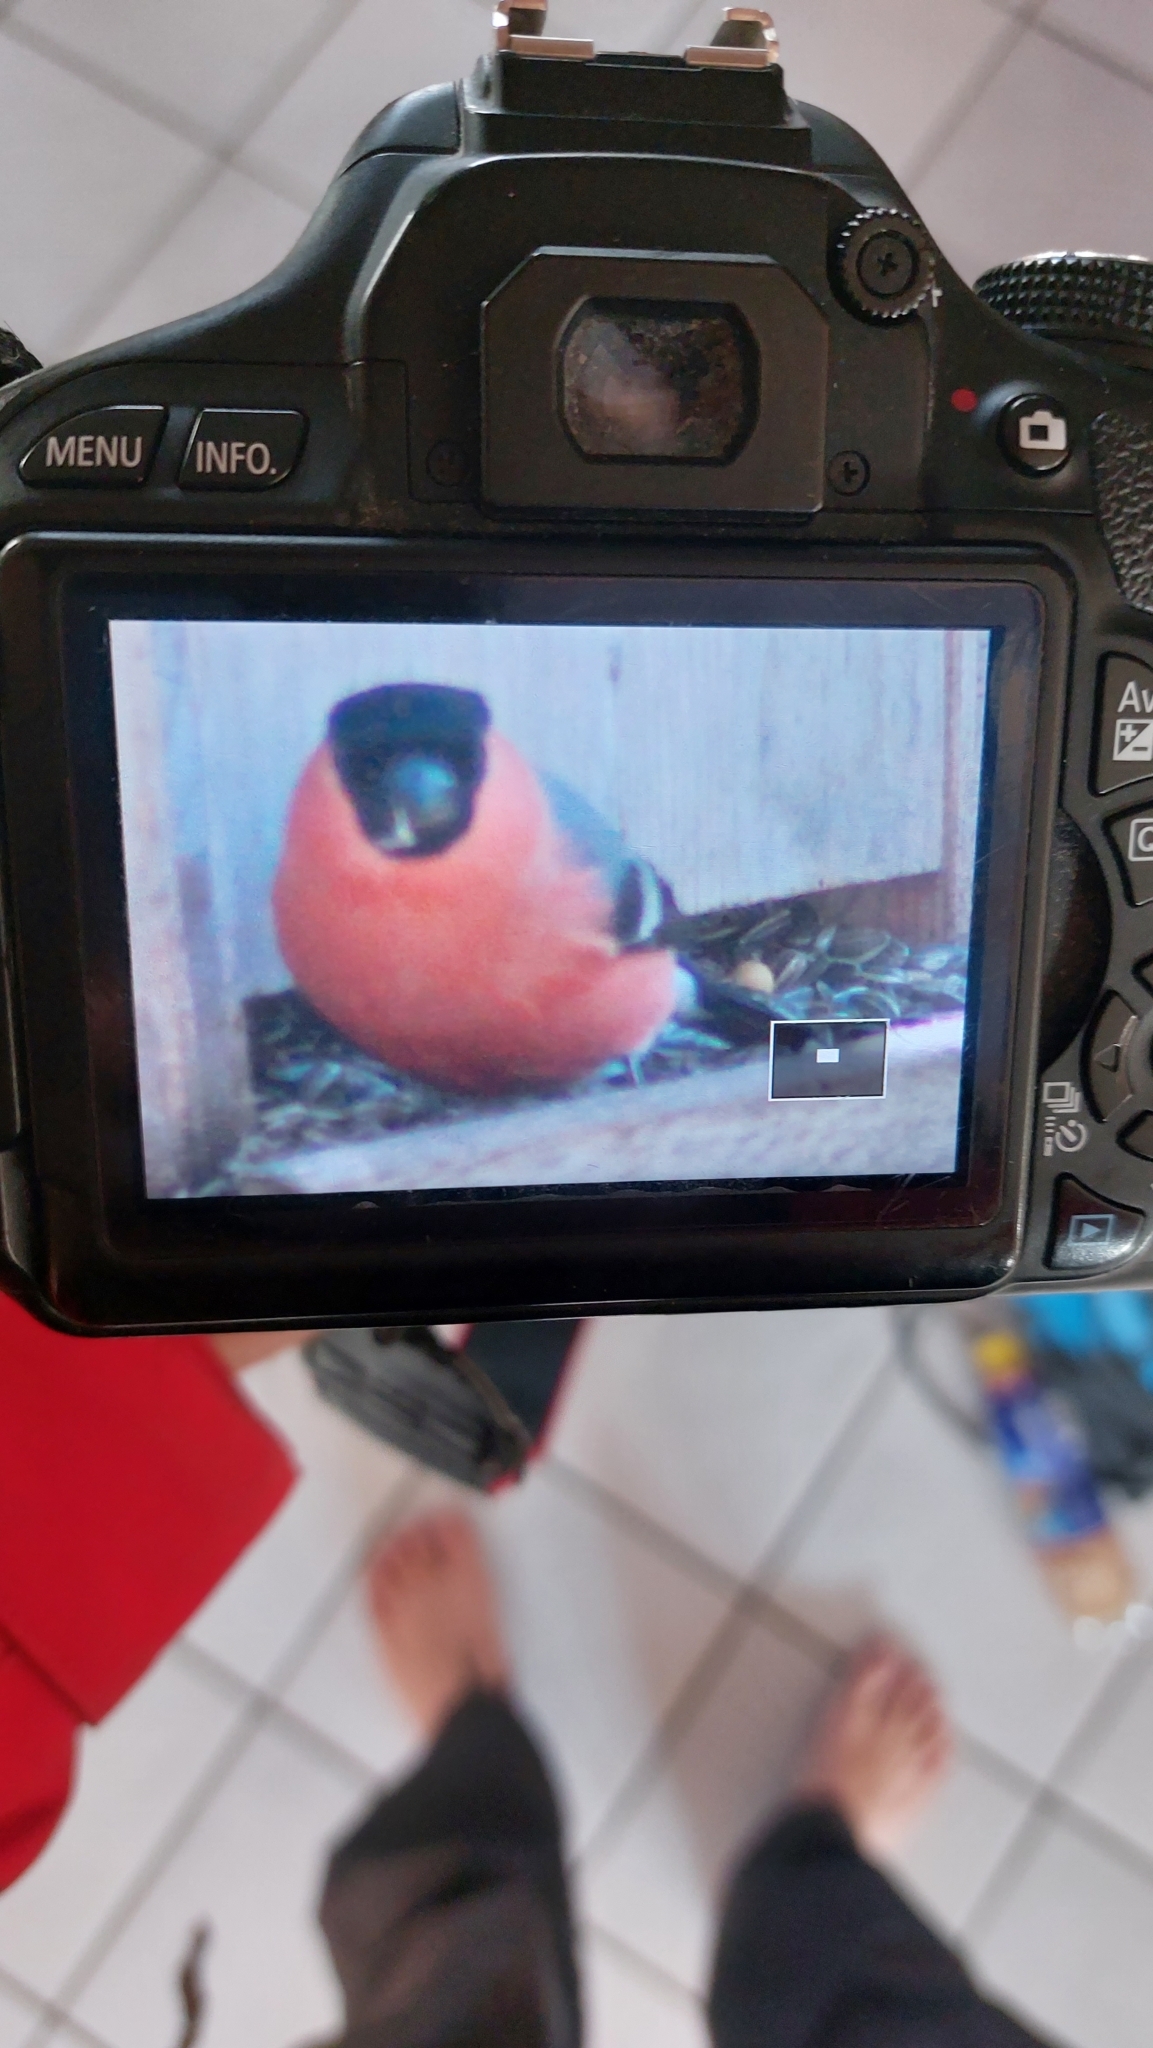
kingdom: Animalia
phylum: Chordata
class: Aves
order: Passeriformes
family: Fringillidae
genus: Pyrrhula
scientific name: Pyrrhula pyrrhula
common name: Eurasian bullfinch
